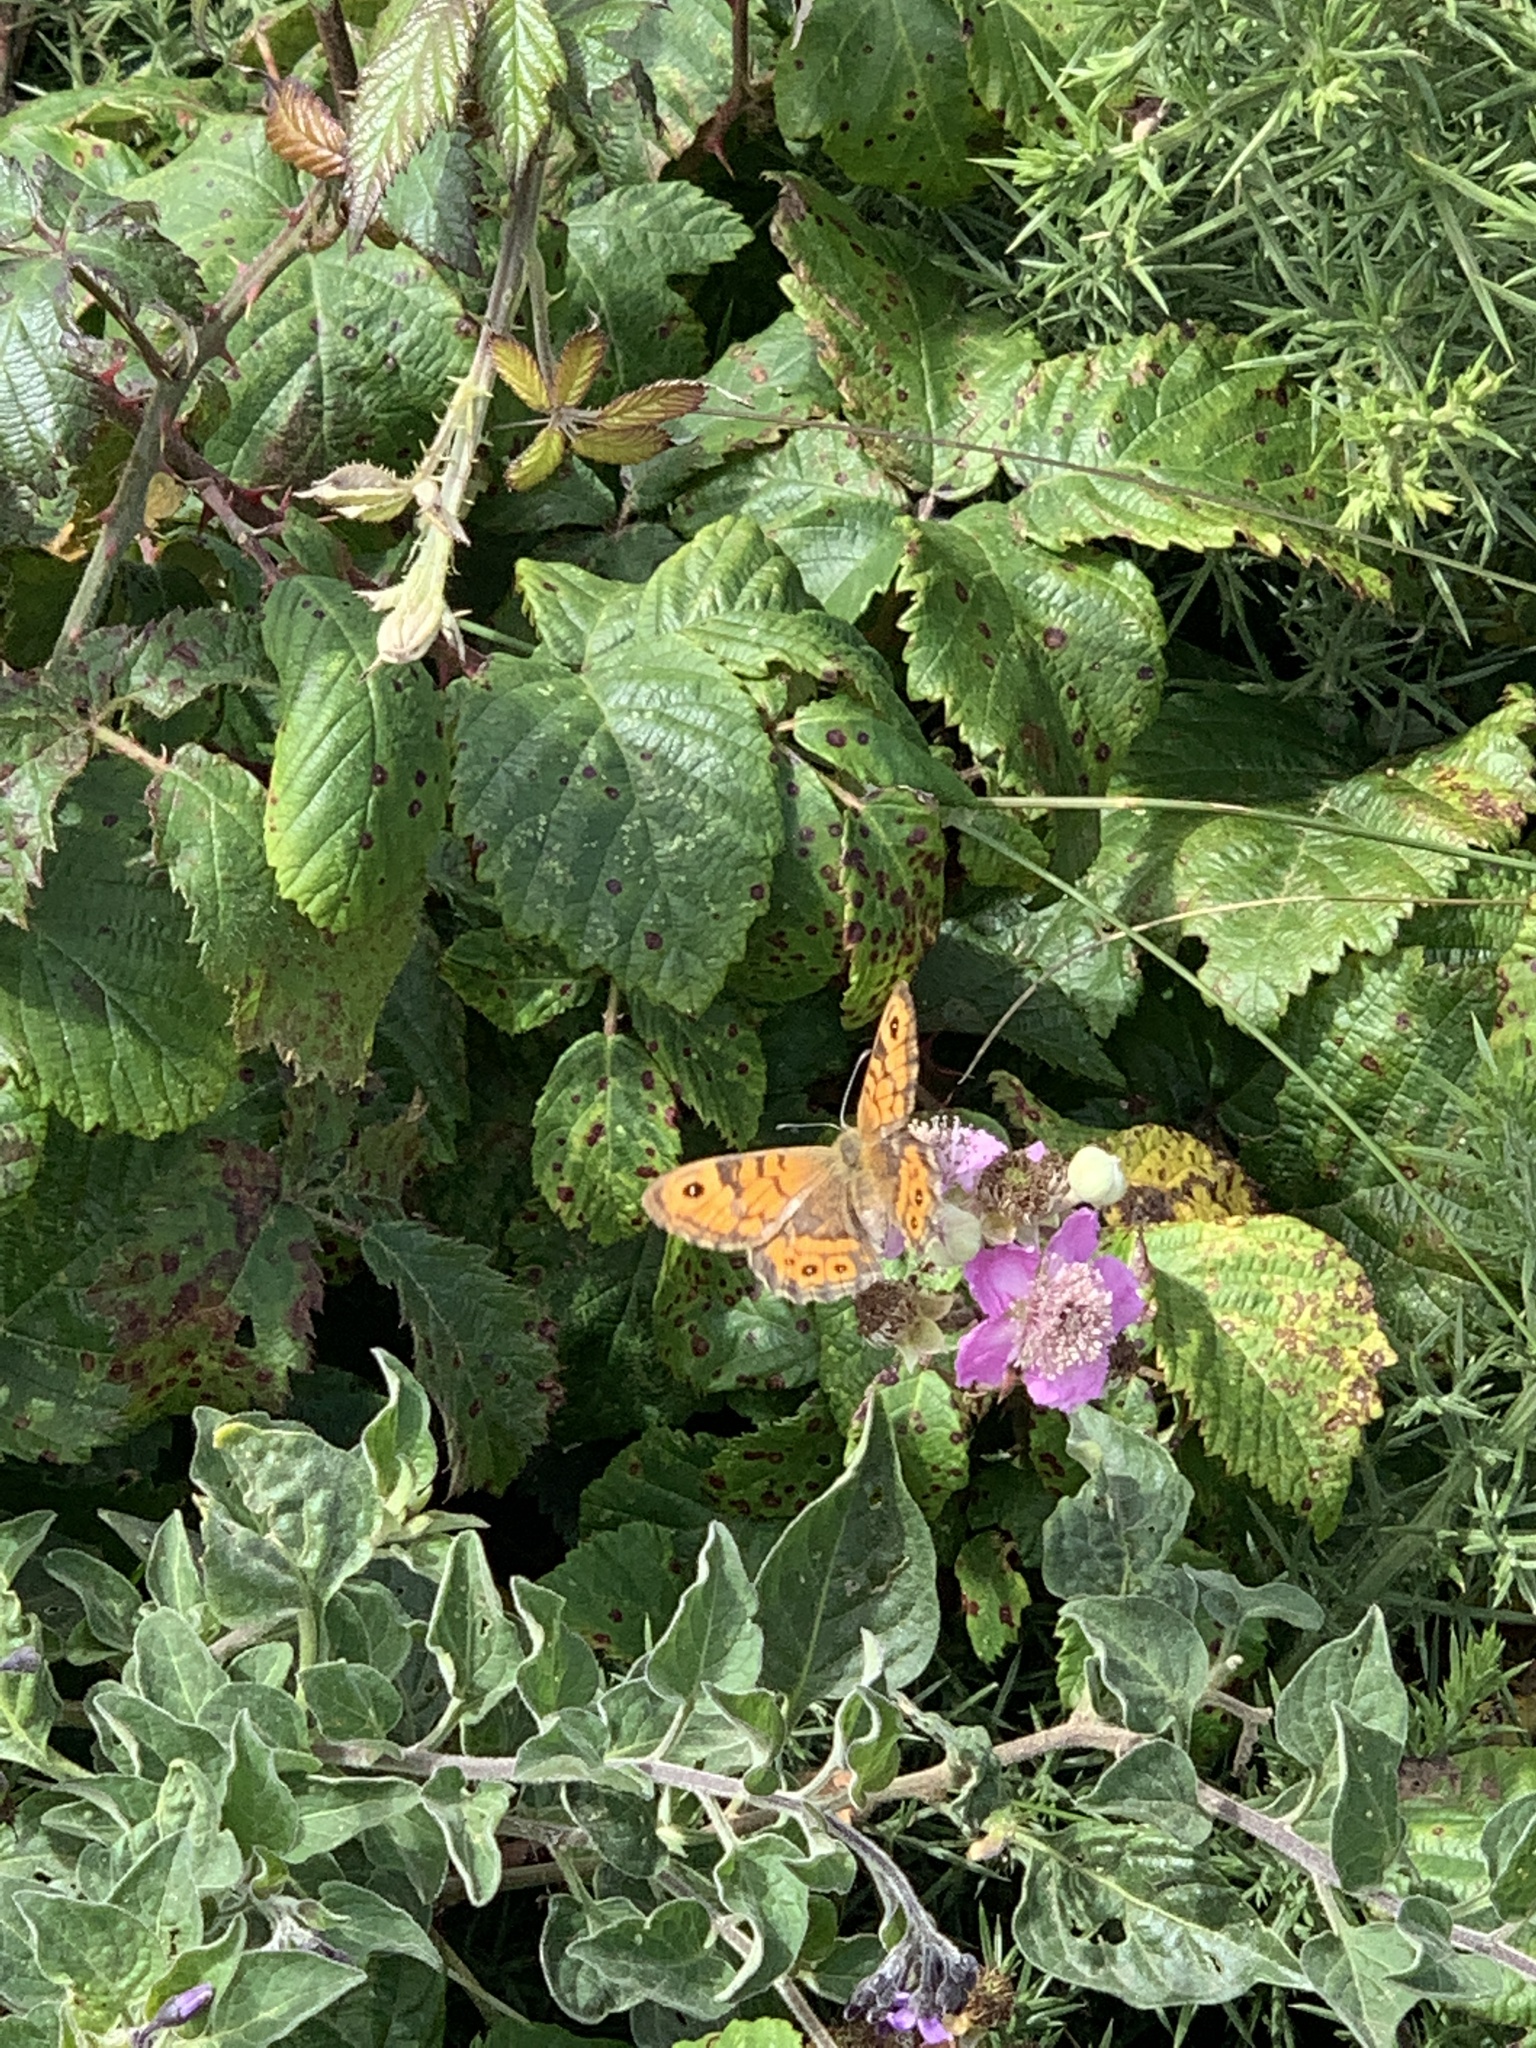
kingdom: Animalia
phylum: Arthropoda
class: Insecta
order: Lepidoptera
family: Nymphalidae
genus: Pararge
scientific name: Pararge Lasiommata megera
